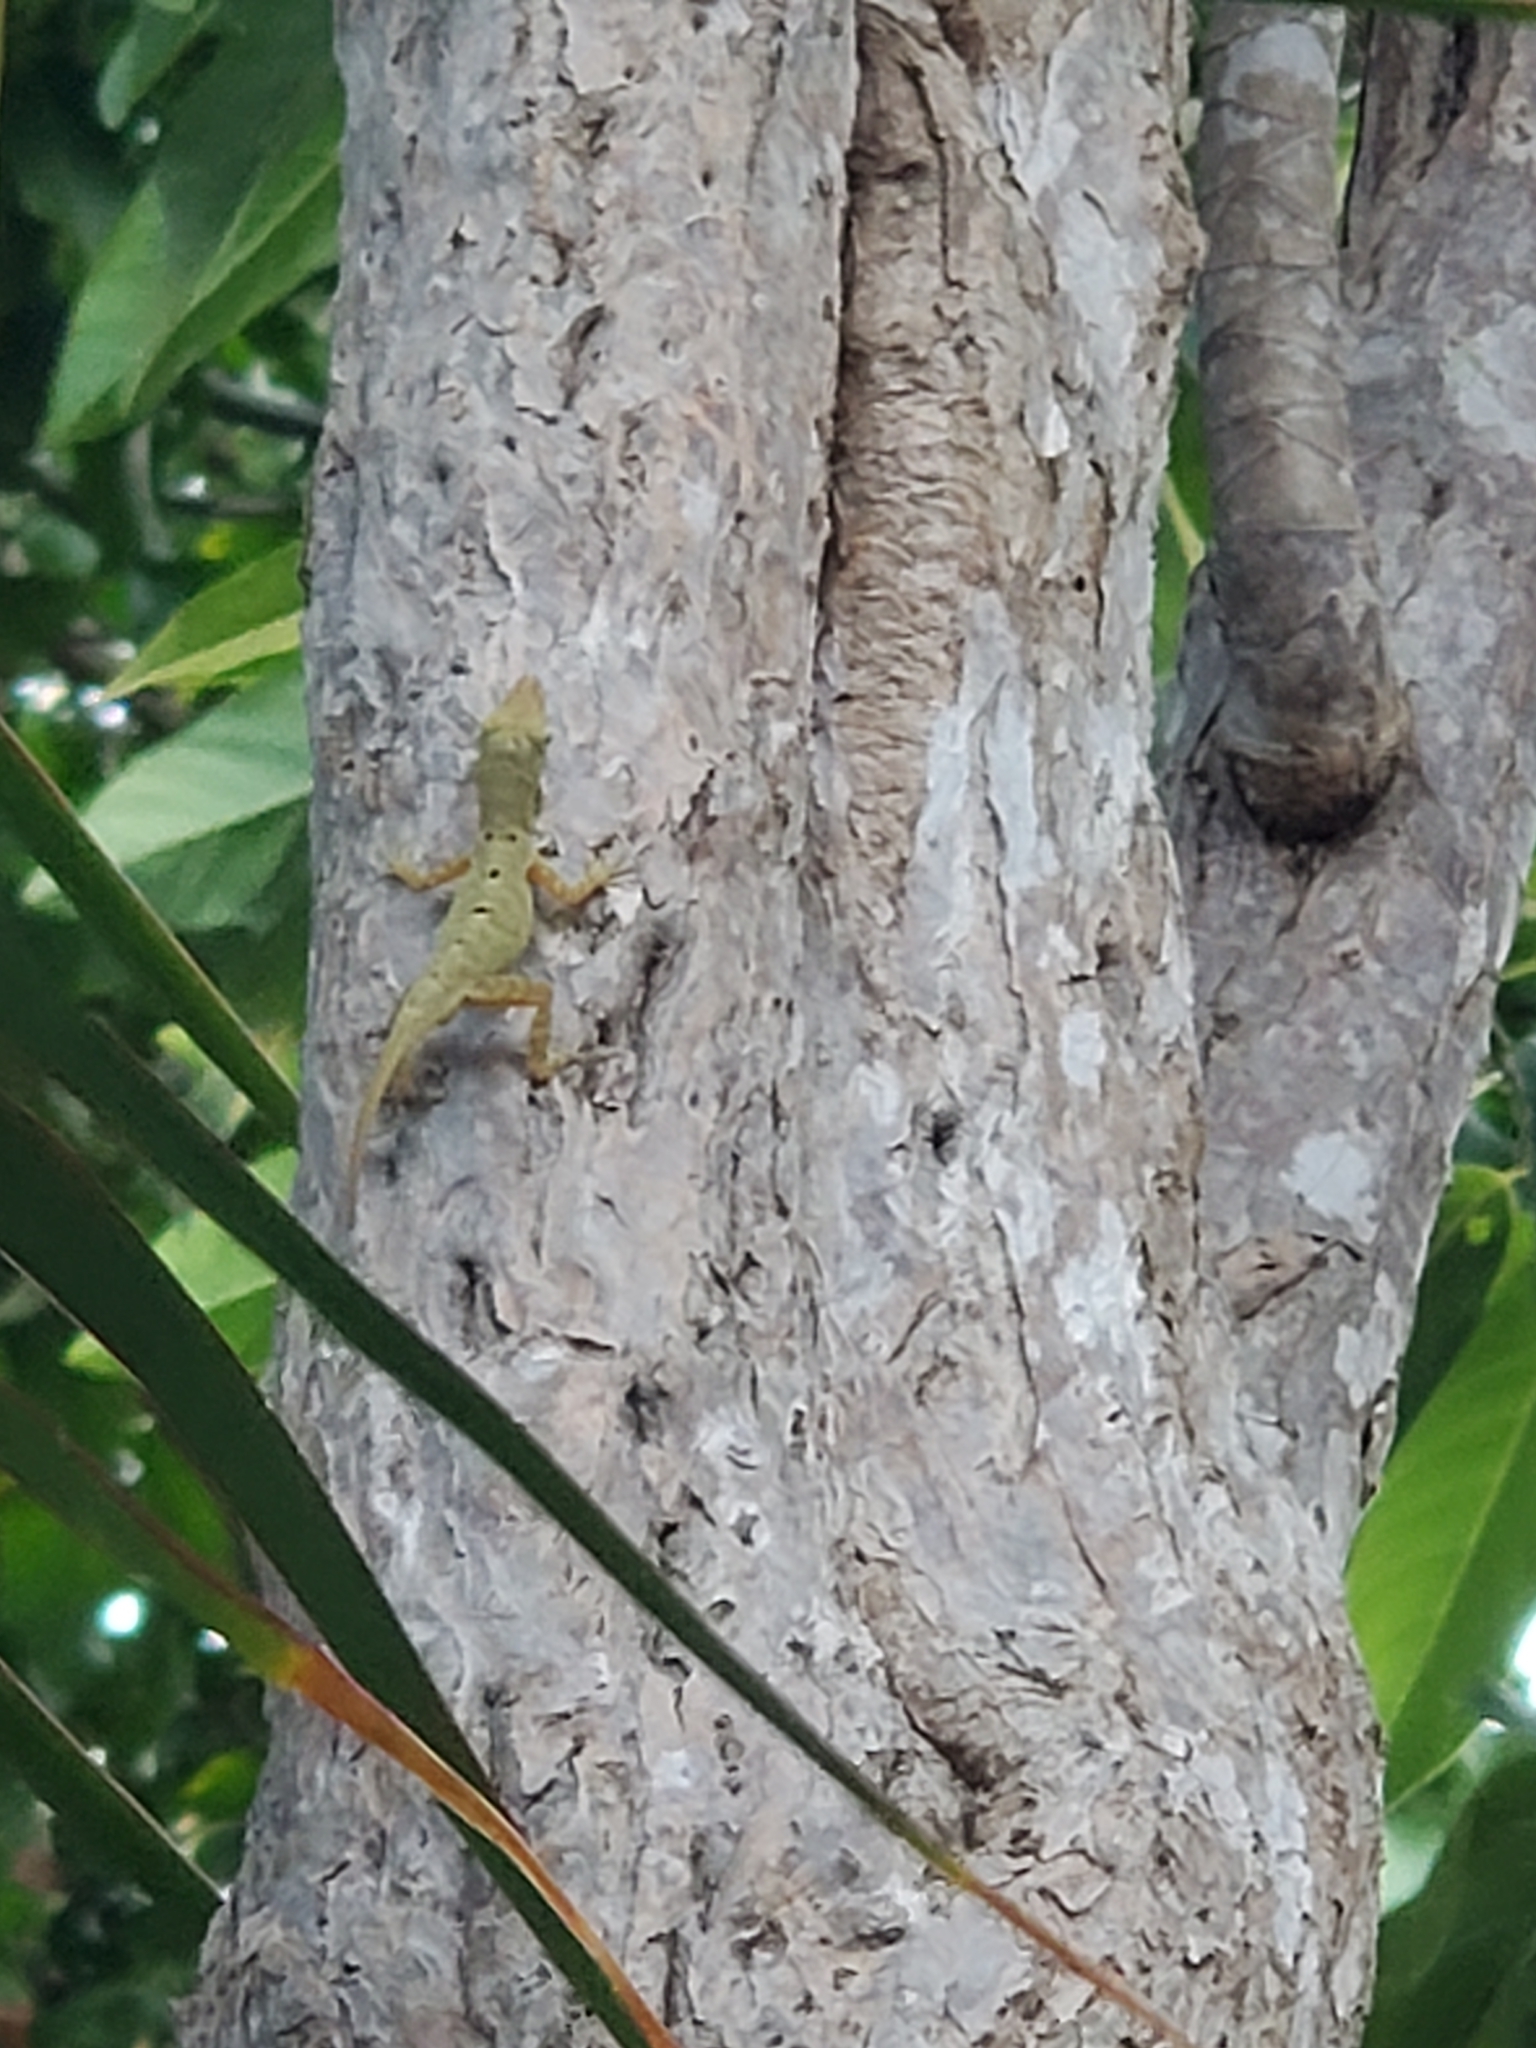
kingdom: Animalia
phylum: Chordata
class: Squamata
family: Dactyloidae
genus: Anolis
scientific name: Anolis stratulus
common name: Banded anole
